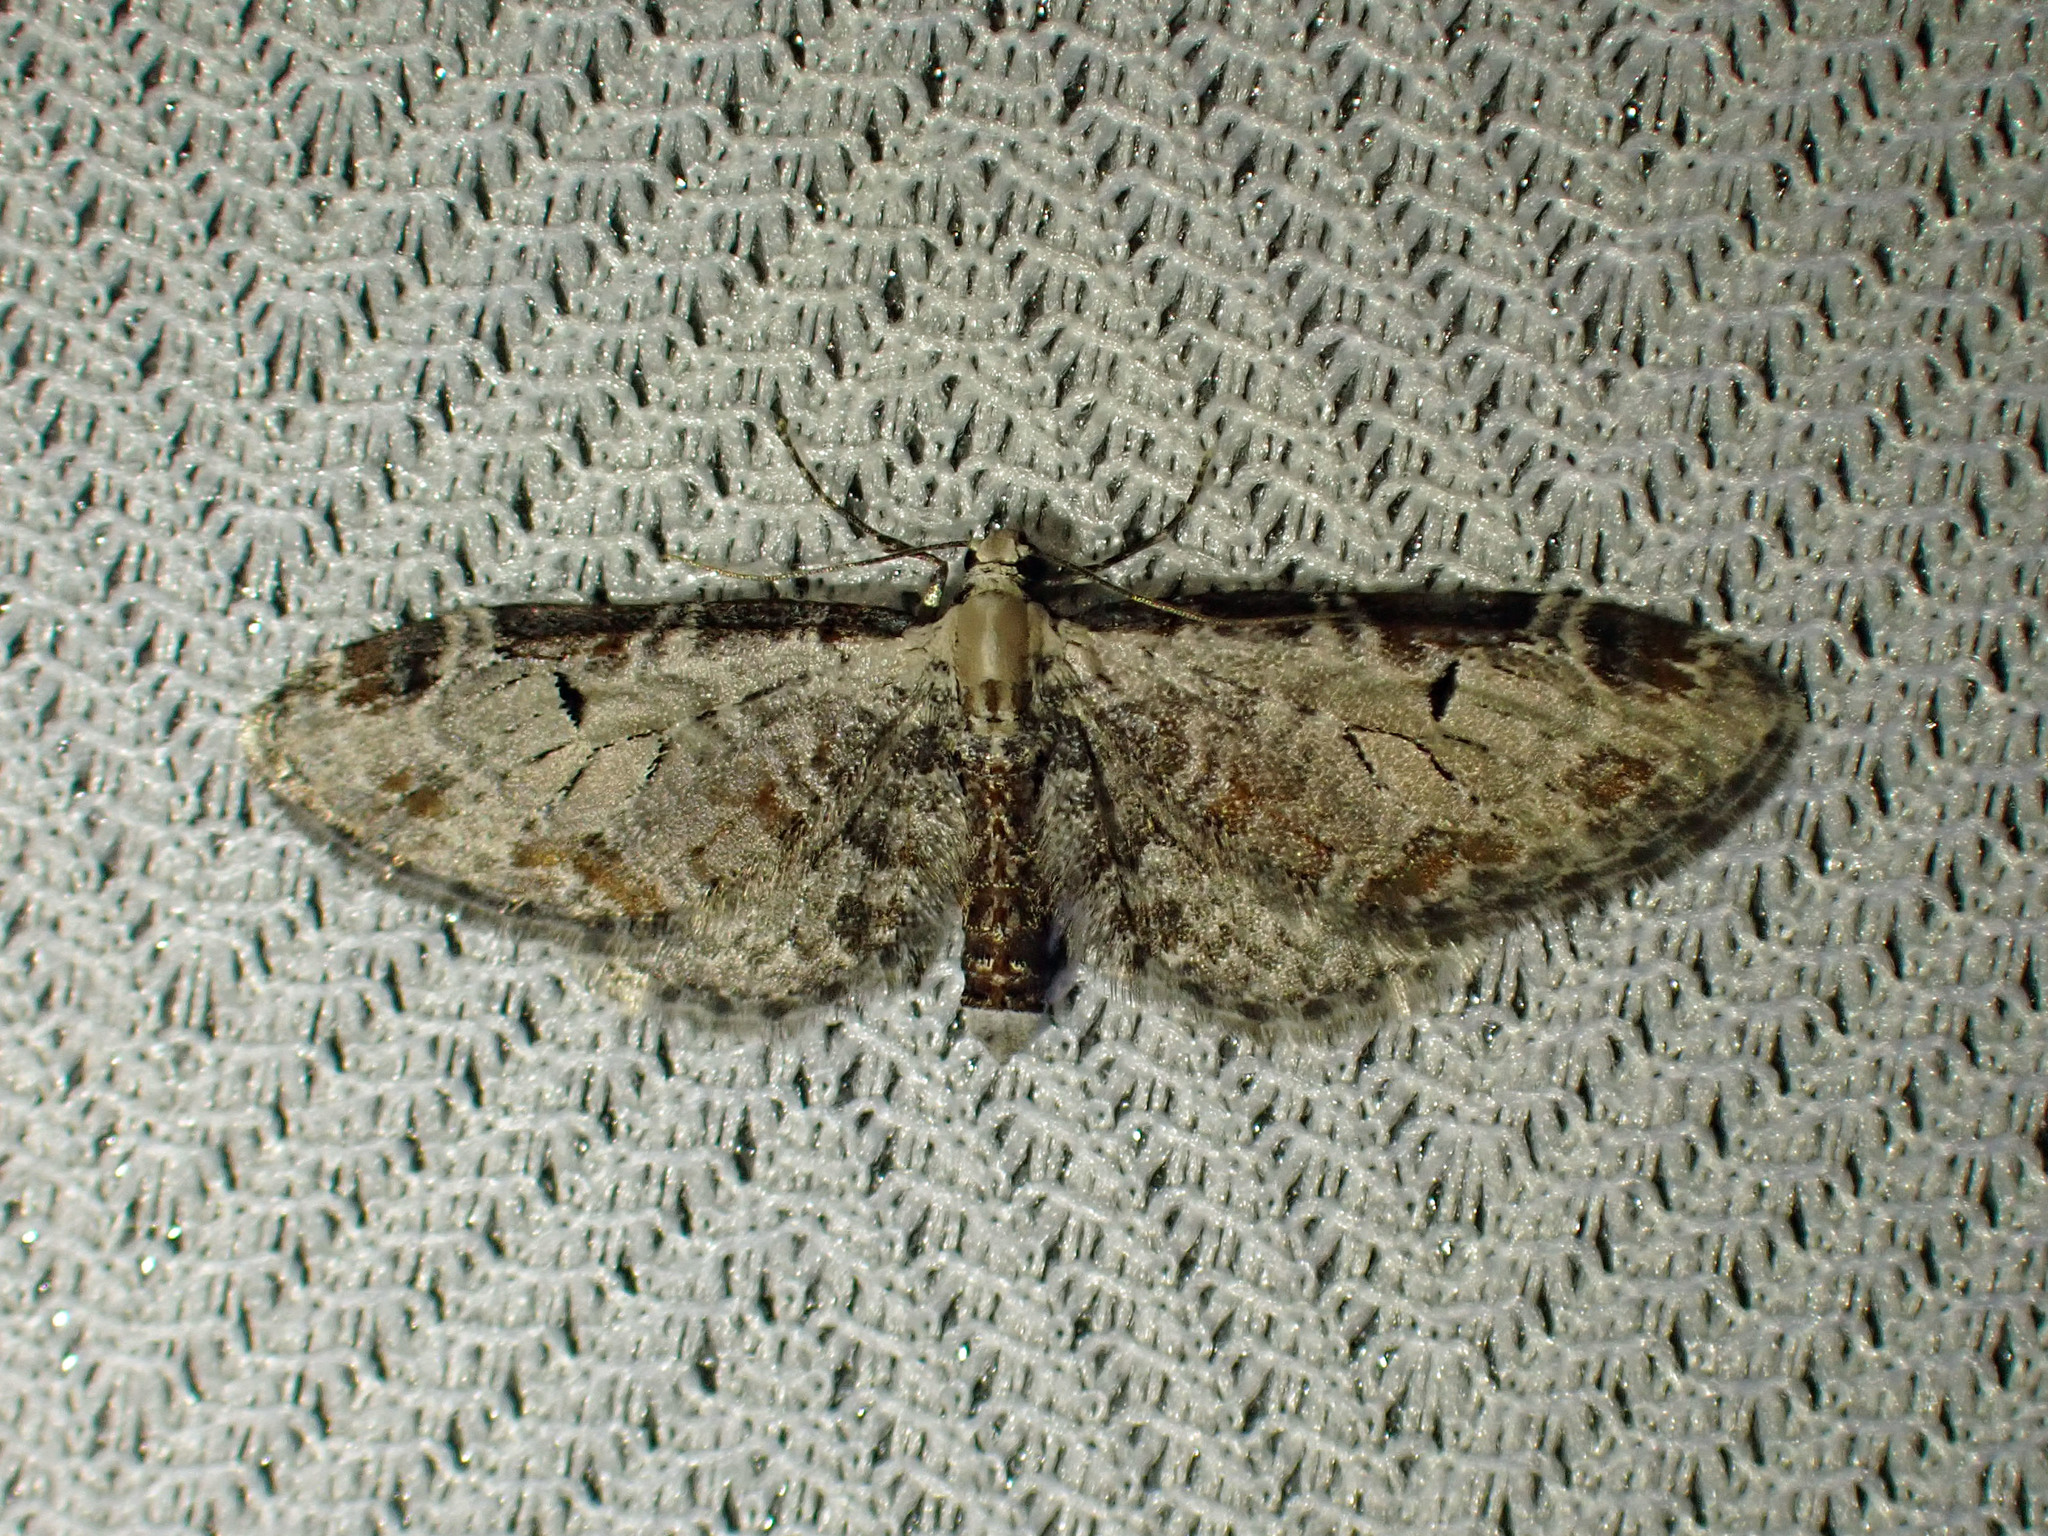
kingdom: Animalia
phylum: Arthropoda
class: Insecta
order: Lepidoptera
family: Geometridae
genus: Eupithecia
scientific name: Eupithecia ravocostaliata
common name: Great varigated pug
